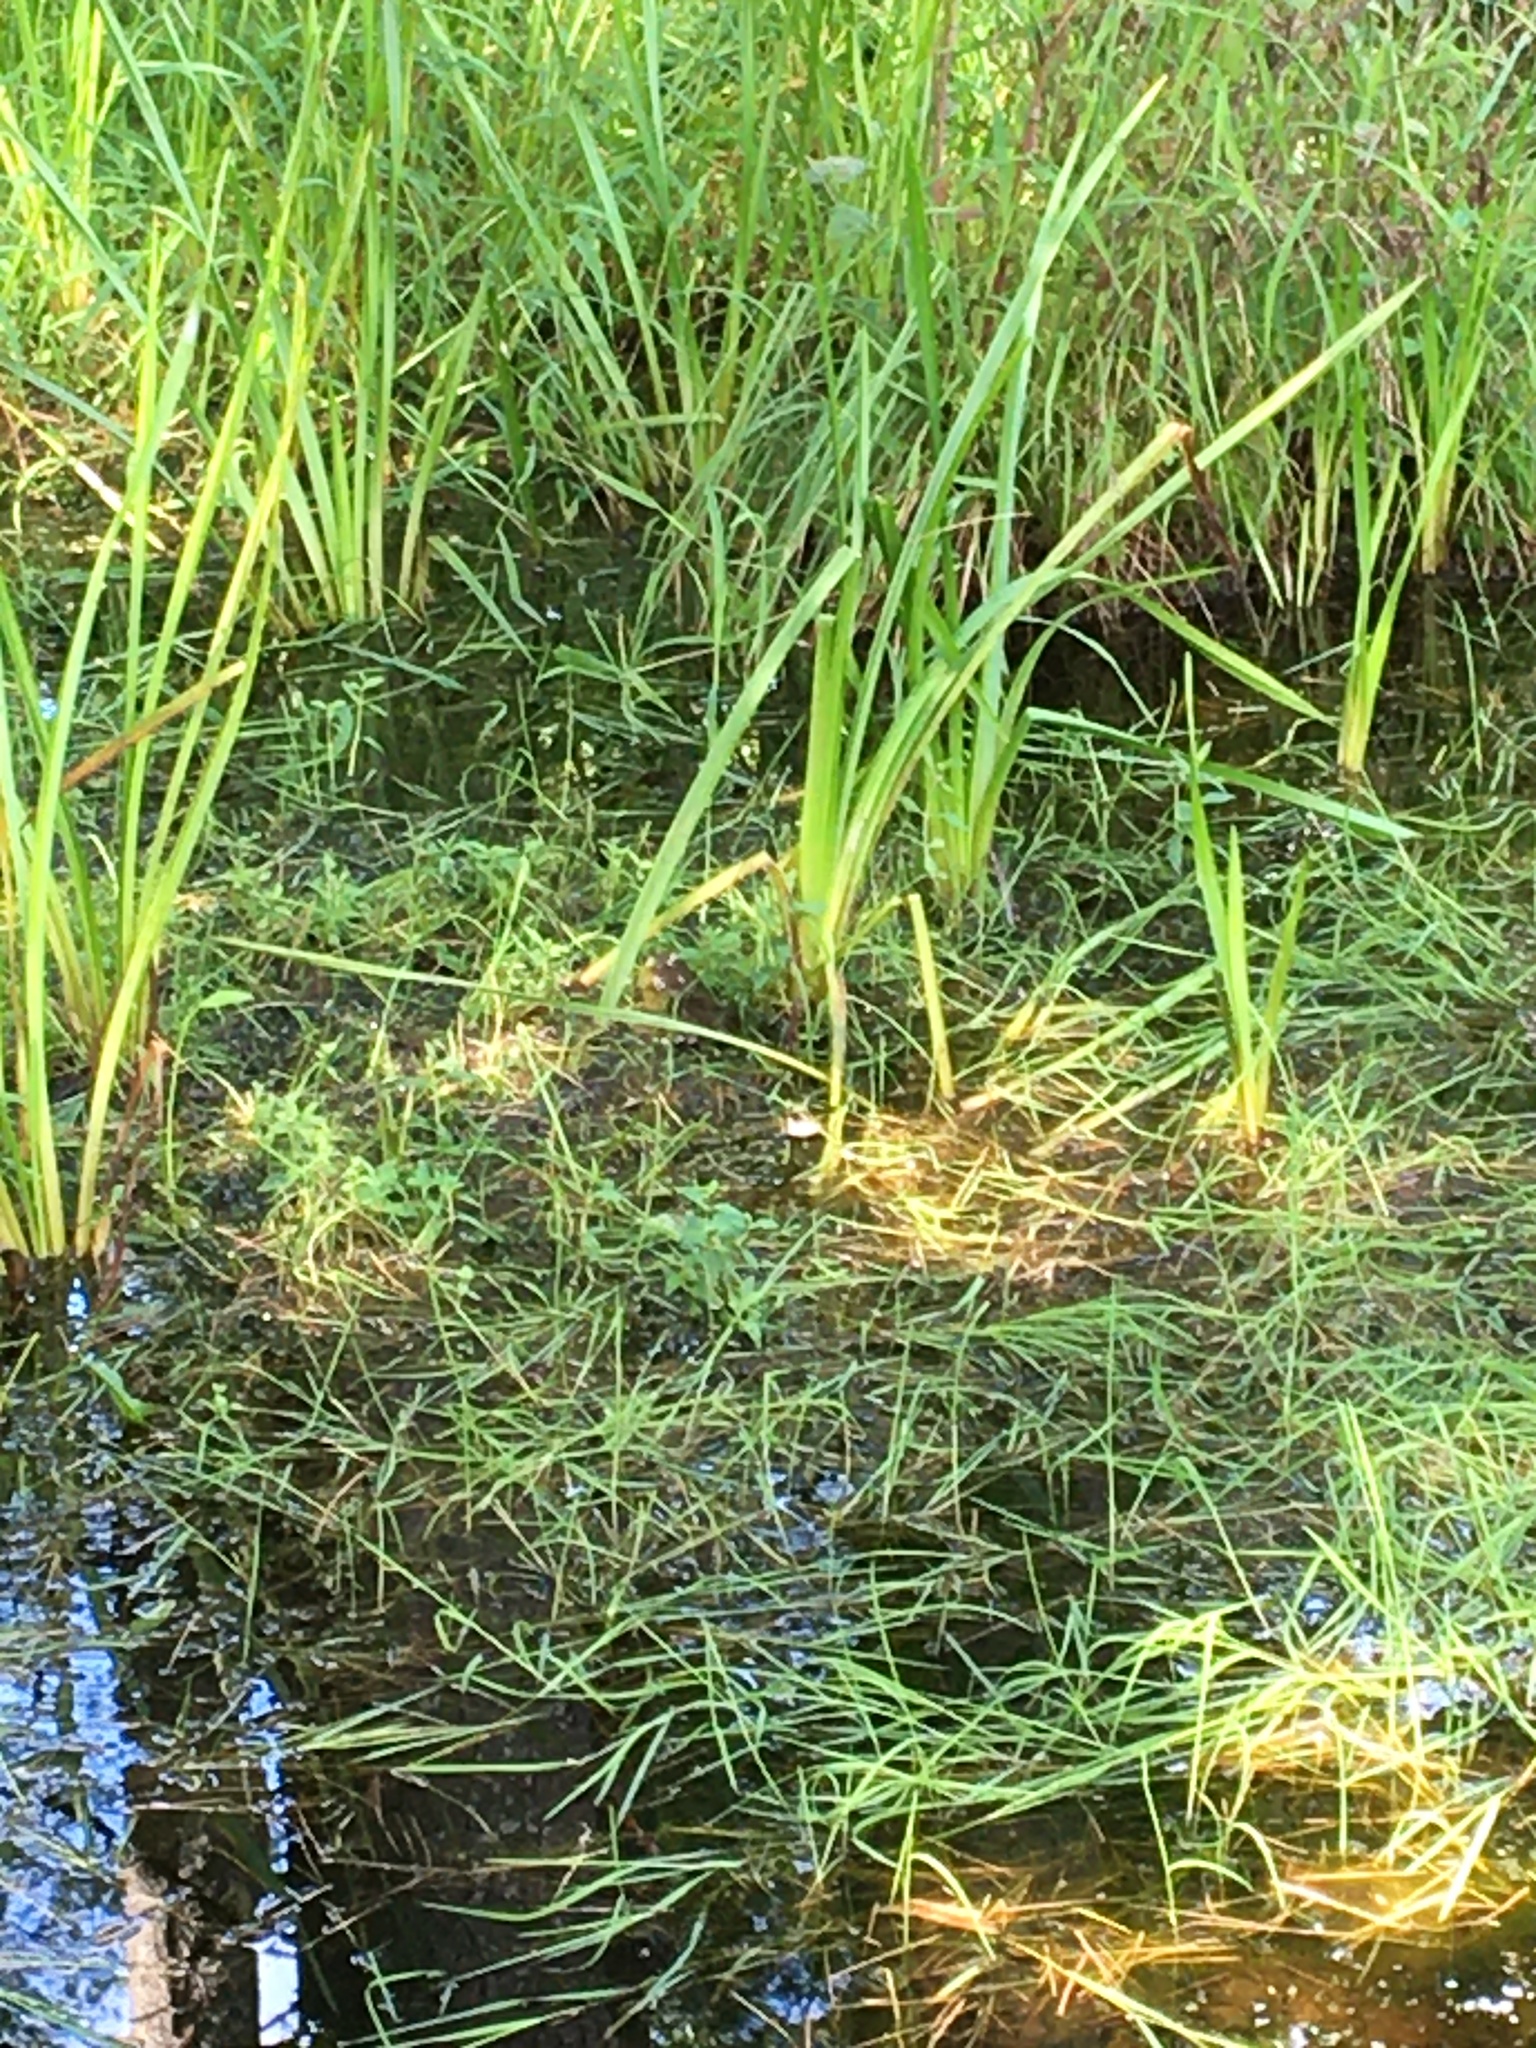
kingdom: Animalia
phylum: Chordata
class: Amphibia
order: Anura
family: Ranidae
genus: Lithobates
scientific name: Lithobates catesbeianus
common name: American bullfrog
